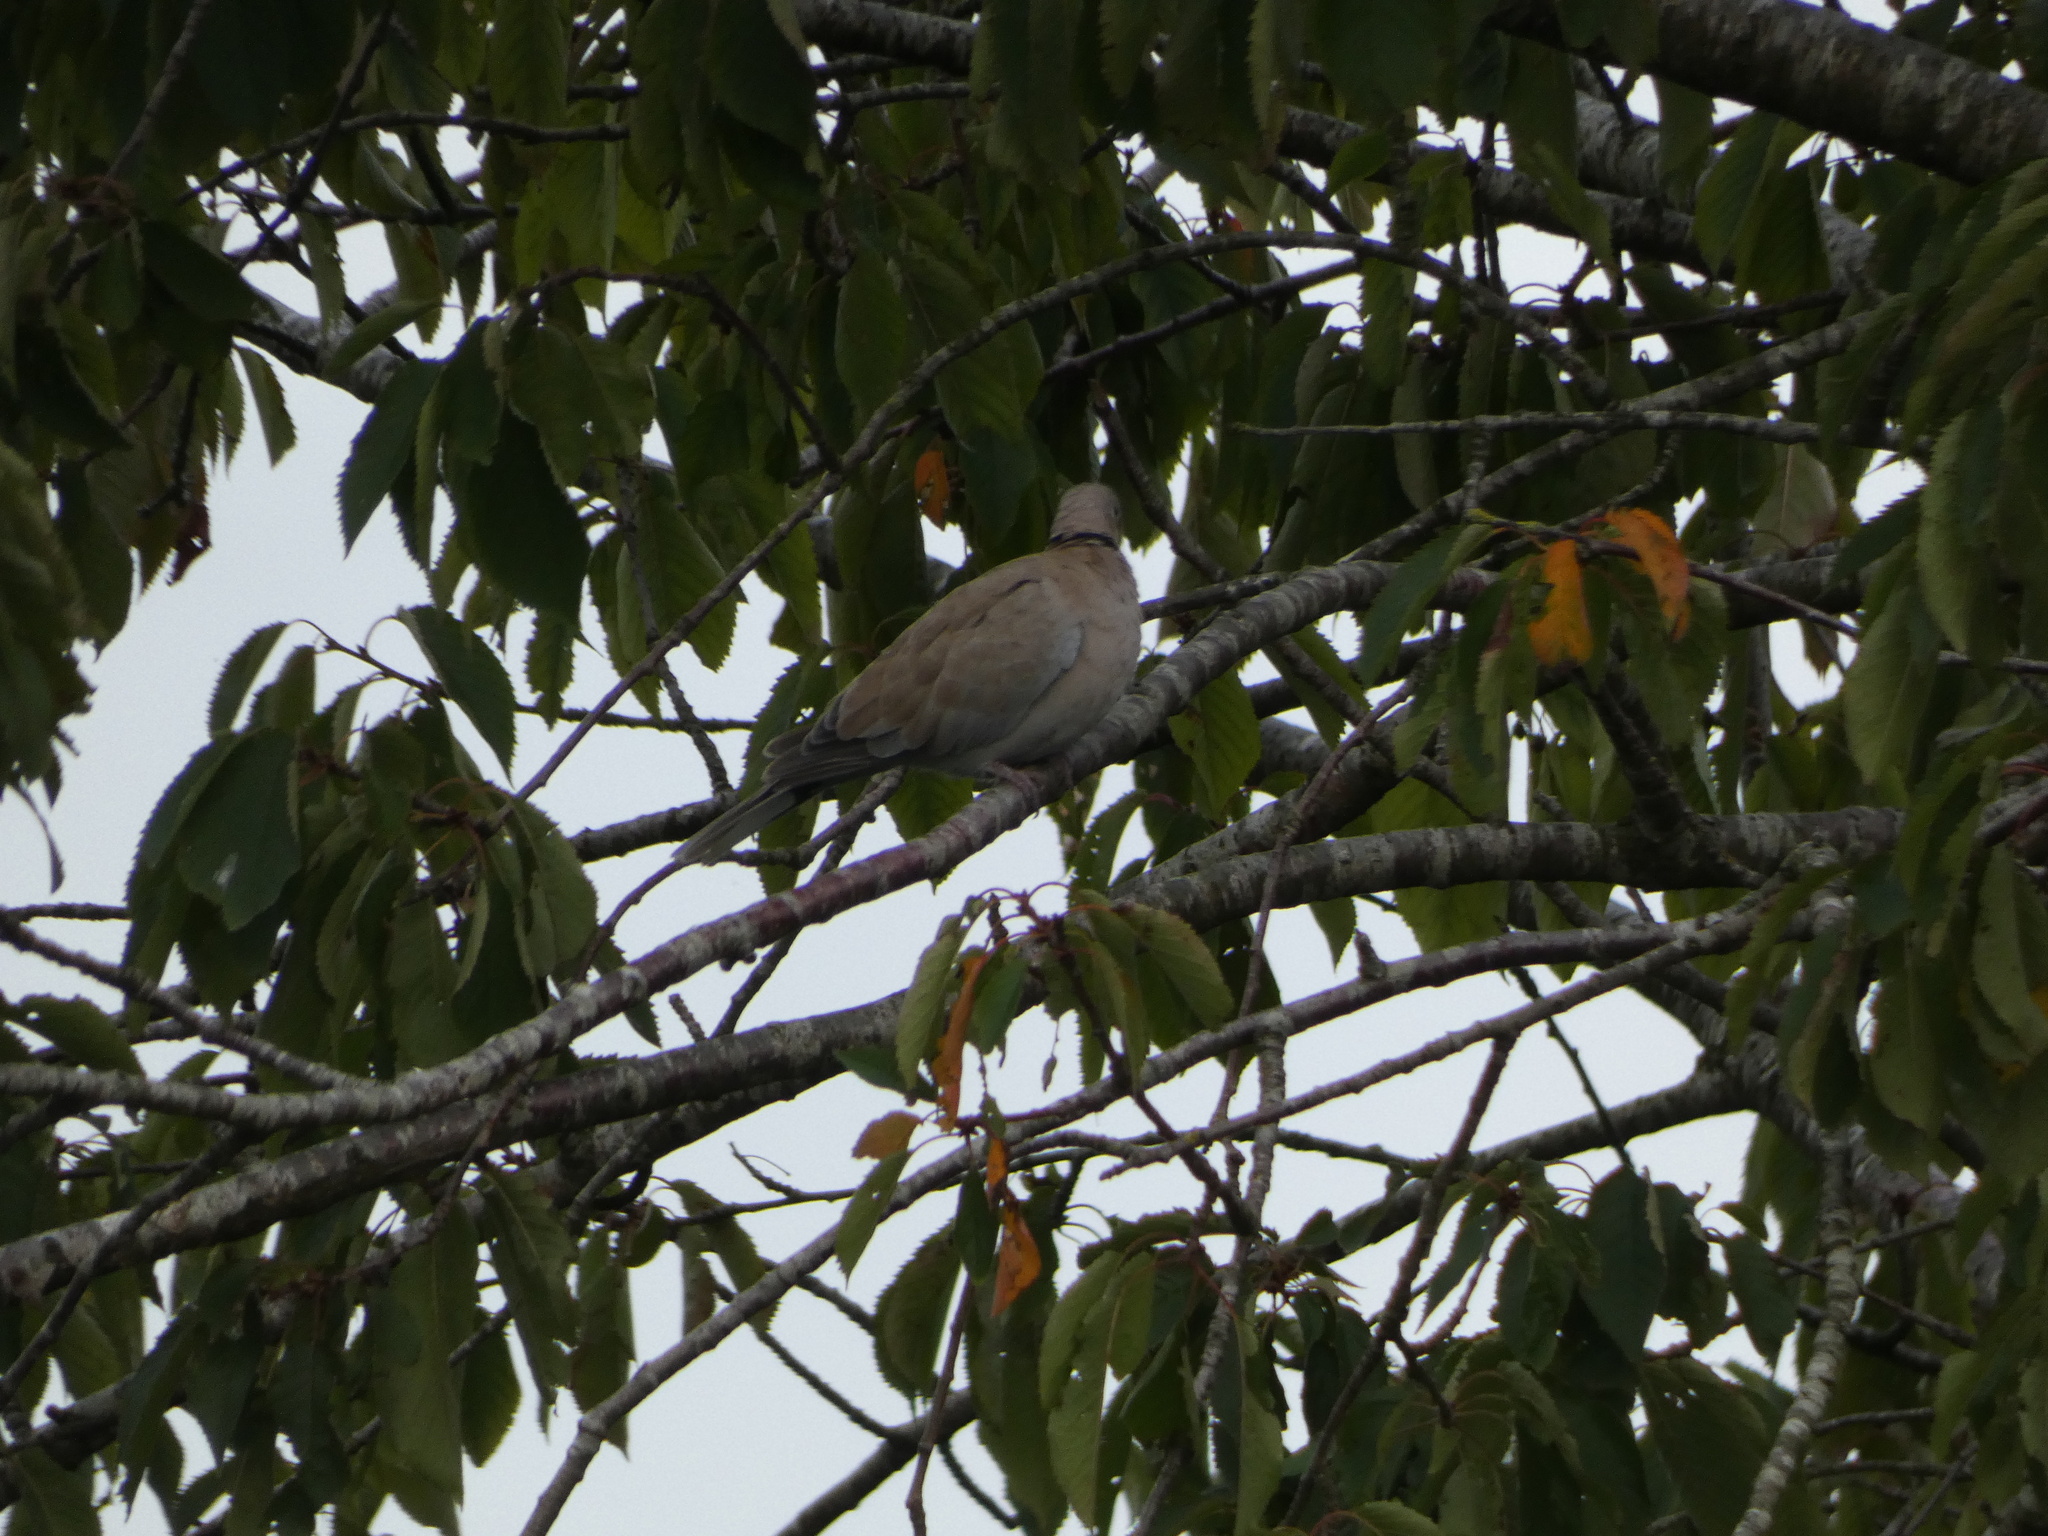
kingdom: Animalia
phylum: Chordata
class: Aves
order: Columbiformes
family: Columbidae
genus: Streptopelia
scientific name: Streptopelia decaocto
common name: Eurasian collared dove
